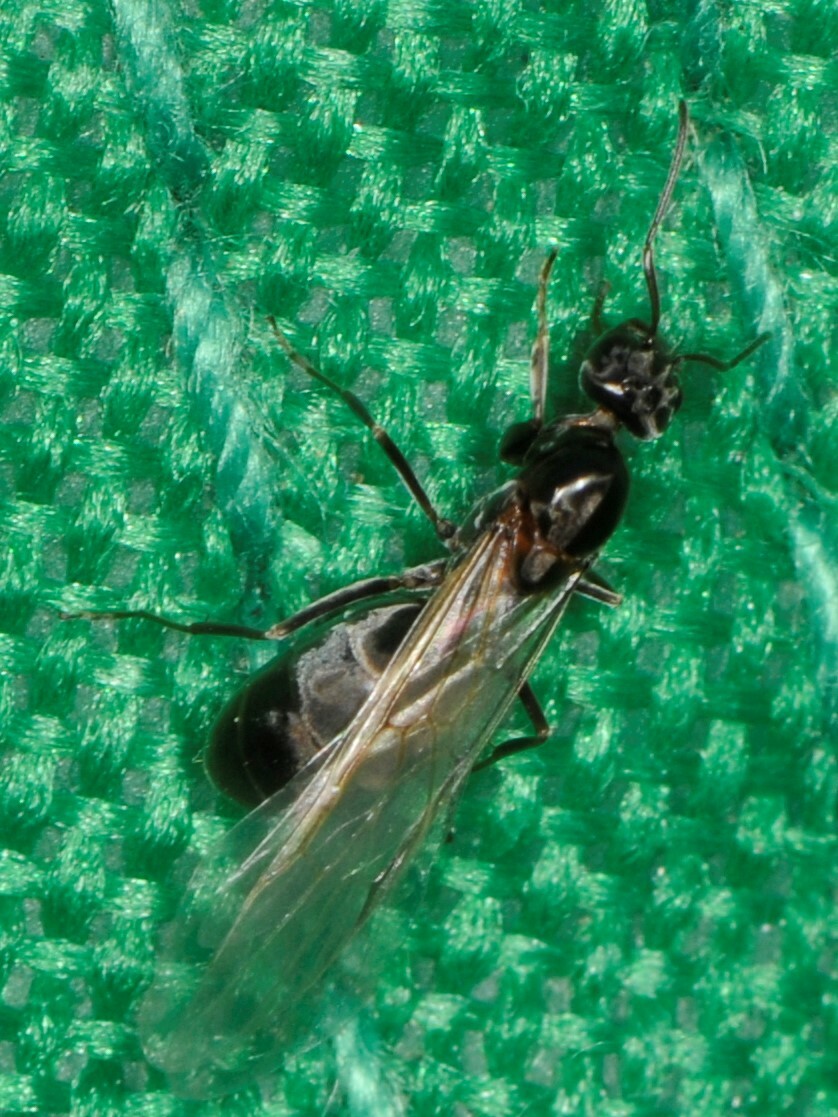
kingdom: Animalia
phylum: Arthropoda
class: Insecta
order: Hymenoptera
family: Formicidae
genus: Dorymyrmex
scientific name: Dorymyrmex
